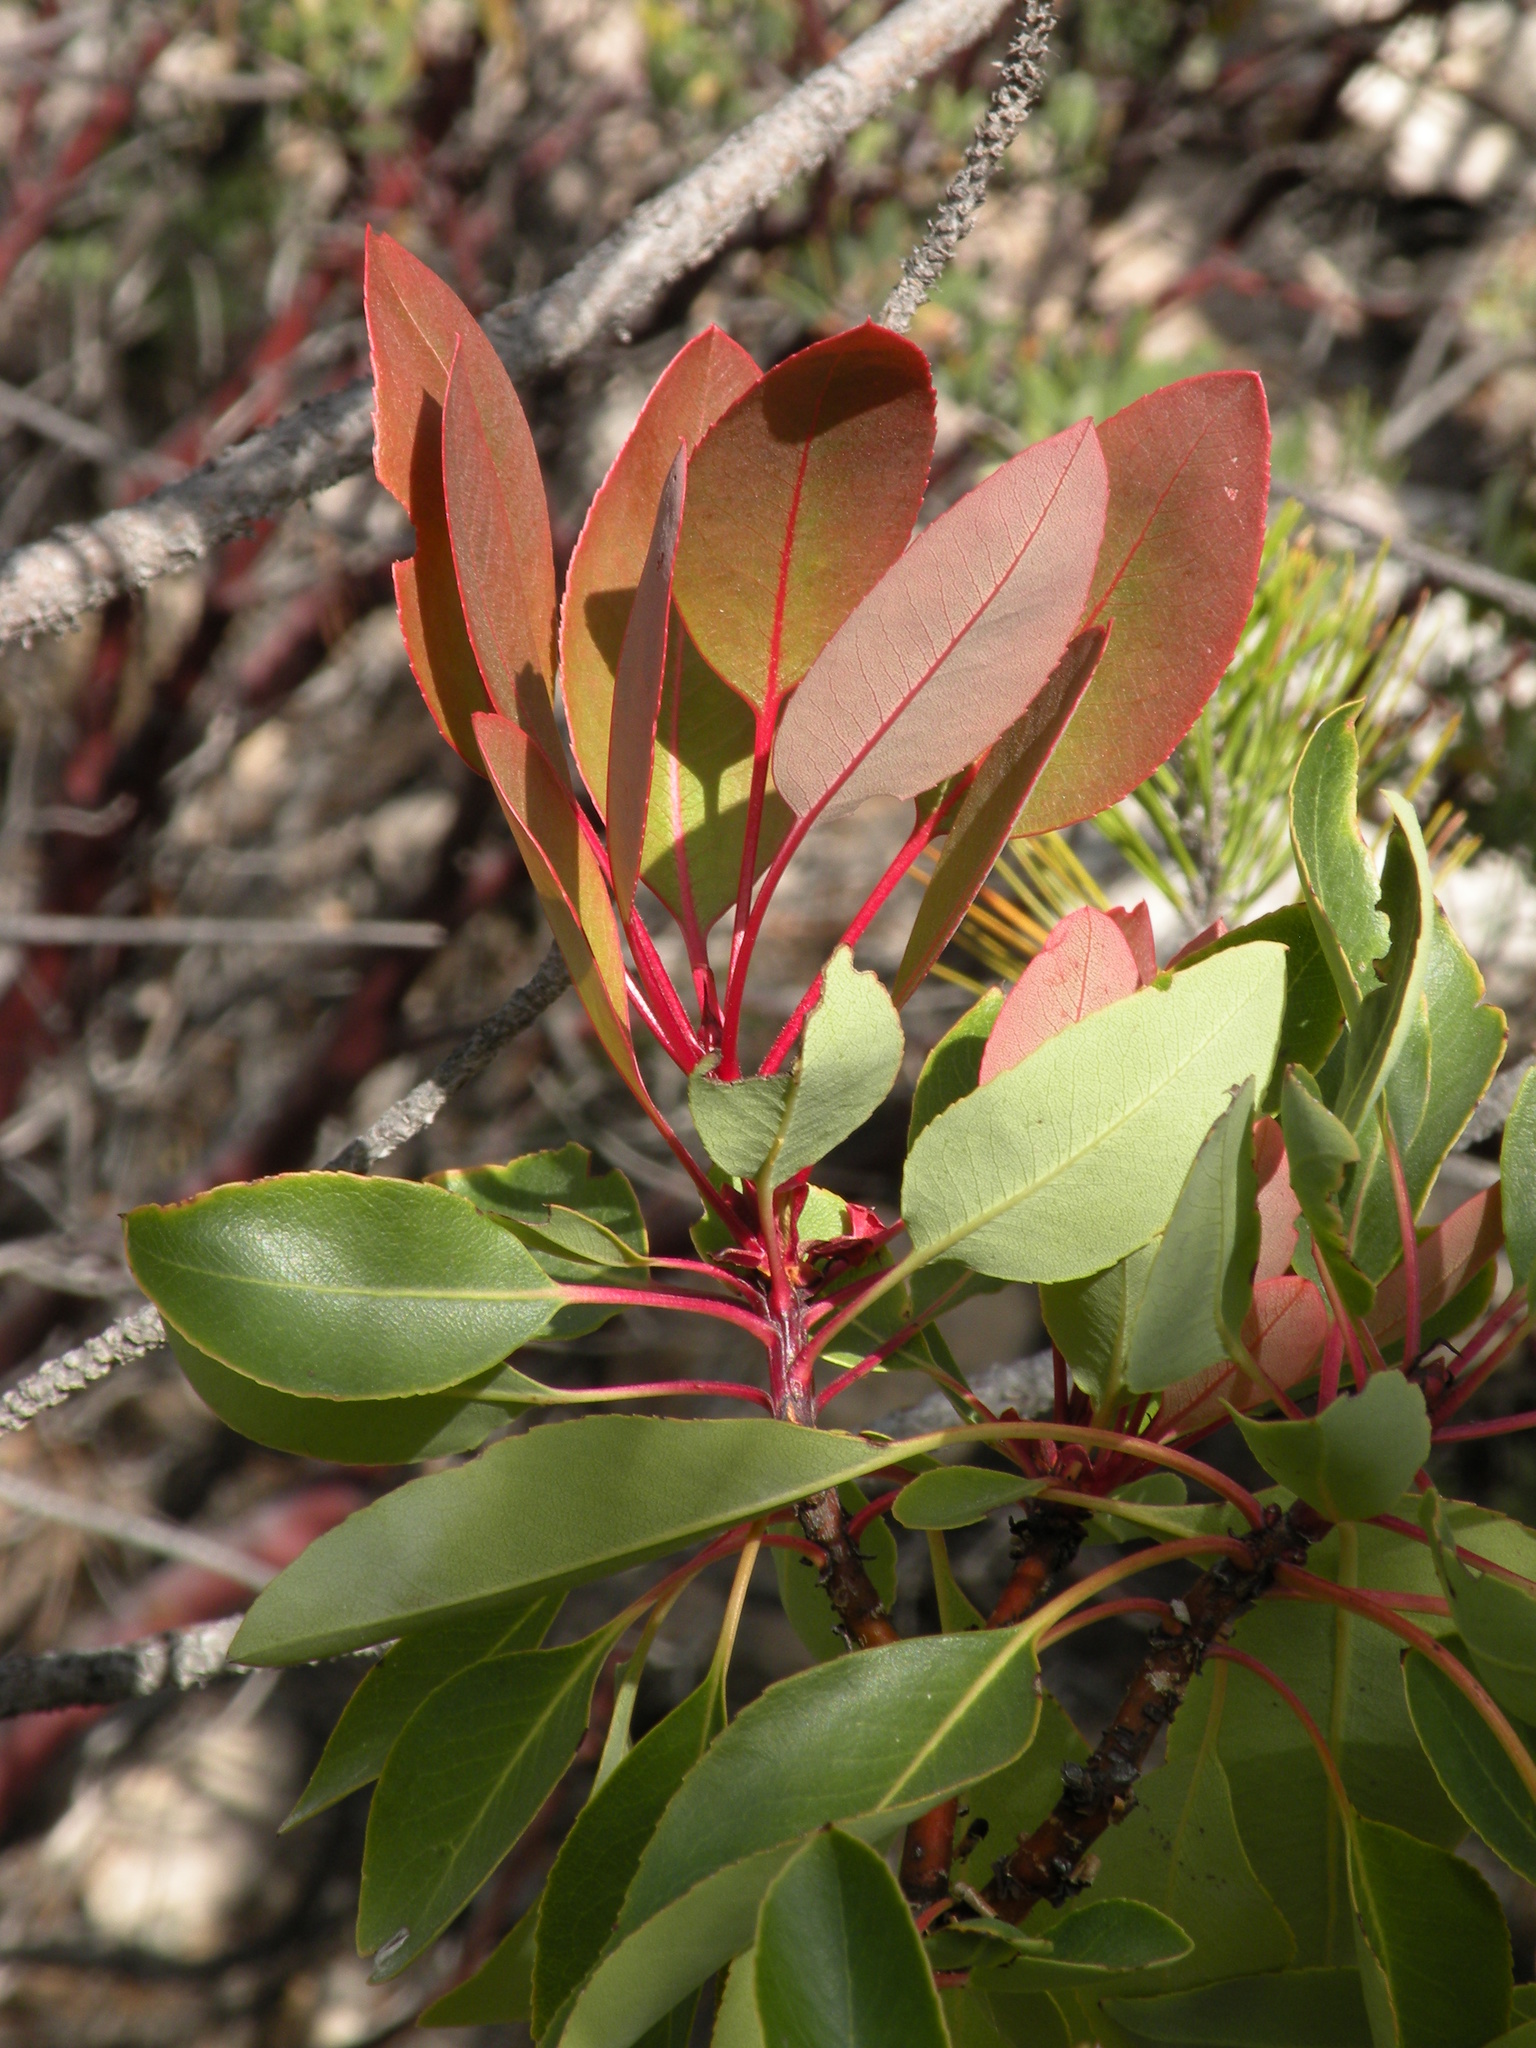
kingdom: Plantae
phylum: Tracheophyta
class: Magnoliopsida
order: Ericales
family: Ericaceae
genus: Arbutus
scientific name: Arbutus arizonica
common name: Arizona madrone
